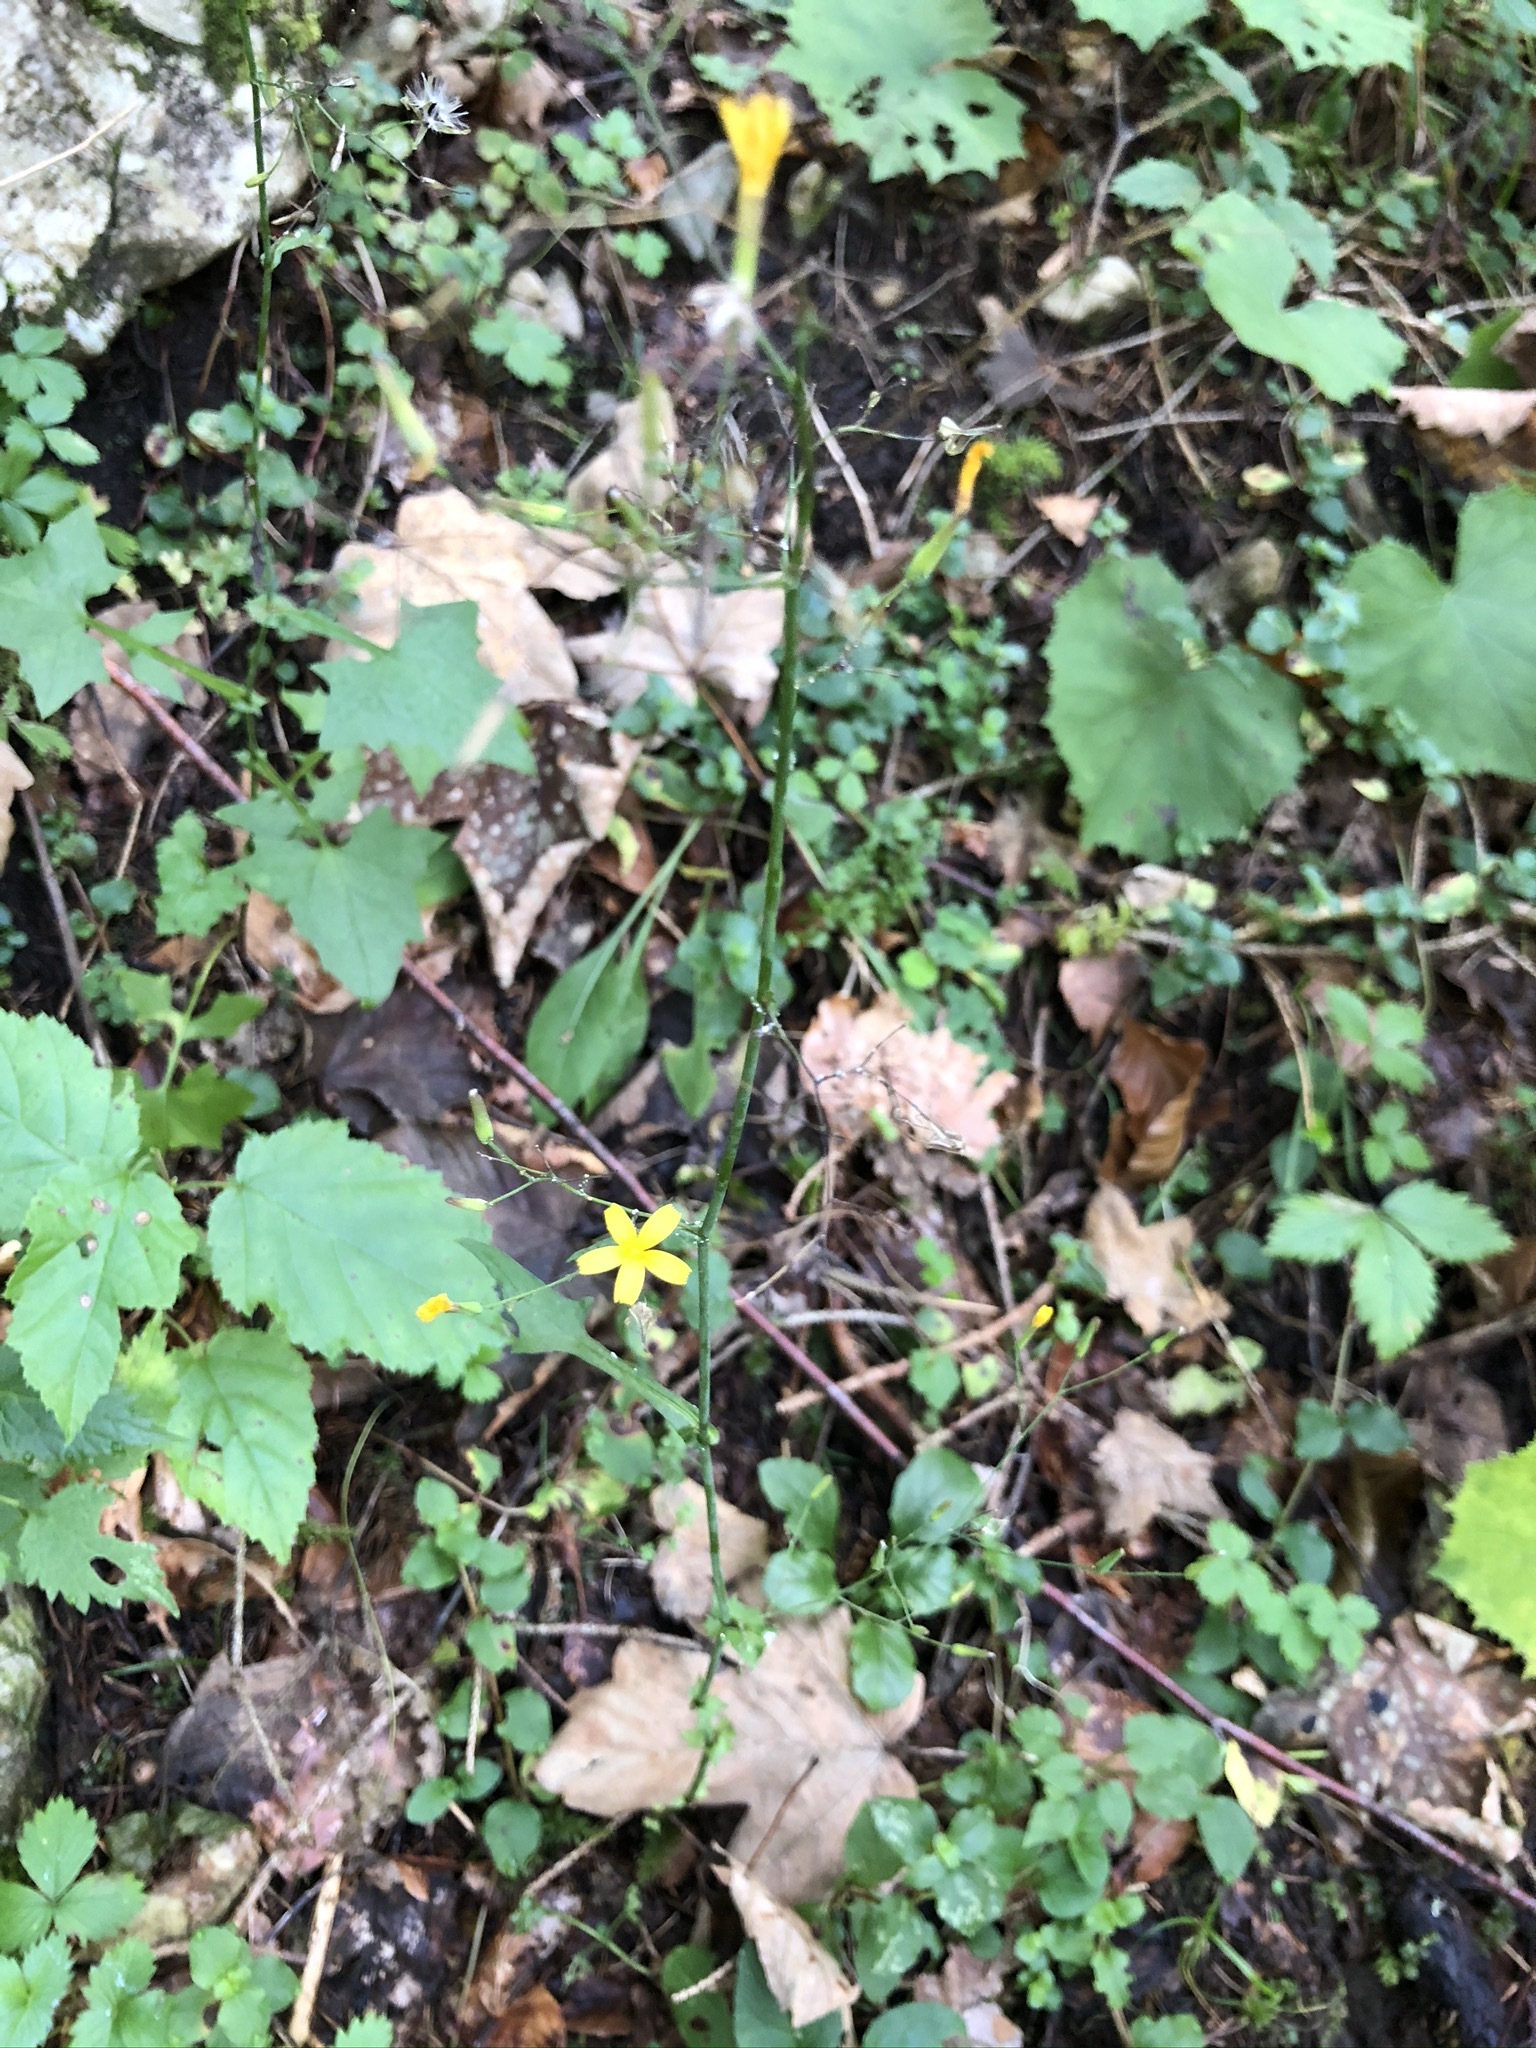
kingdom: Plantae
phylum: Tracheophyta
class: Magnoliopsida
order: Asterales
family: Asteraceae
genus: Mycelis
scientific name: Mycelis muralis
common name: Wall lettuce
